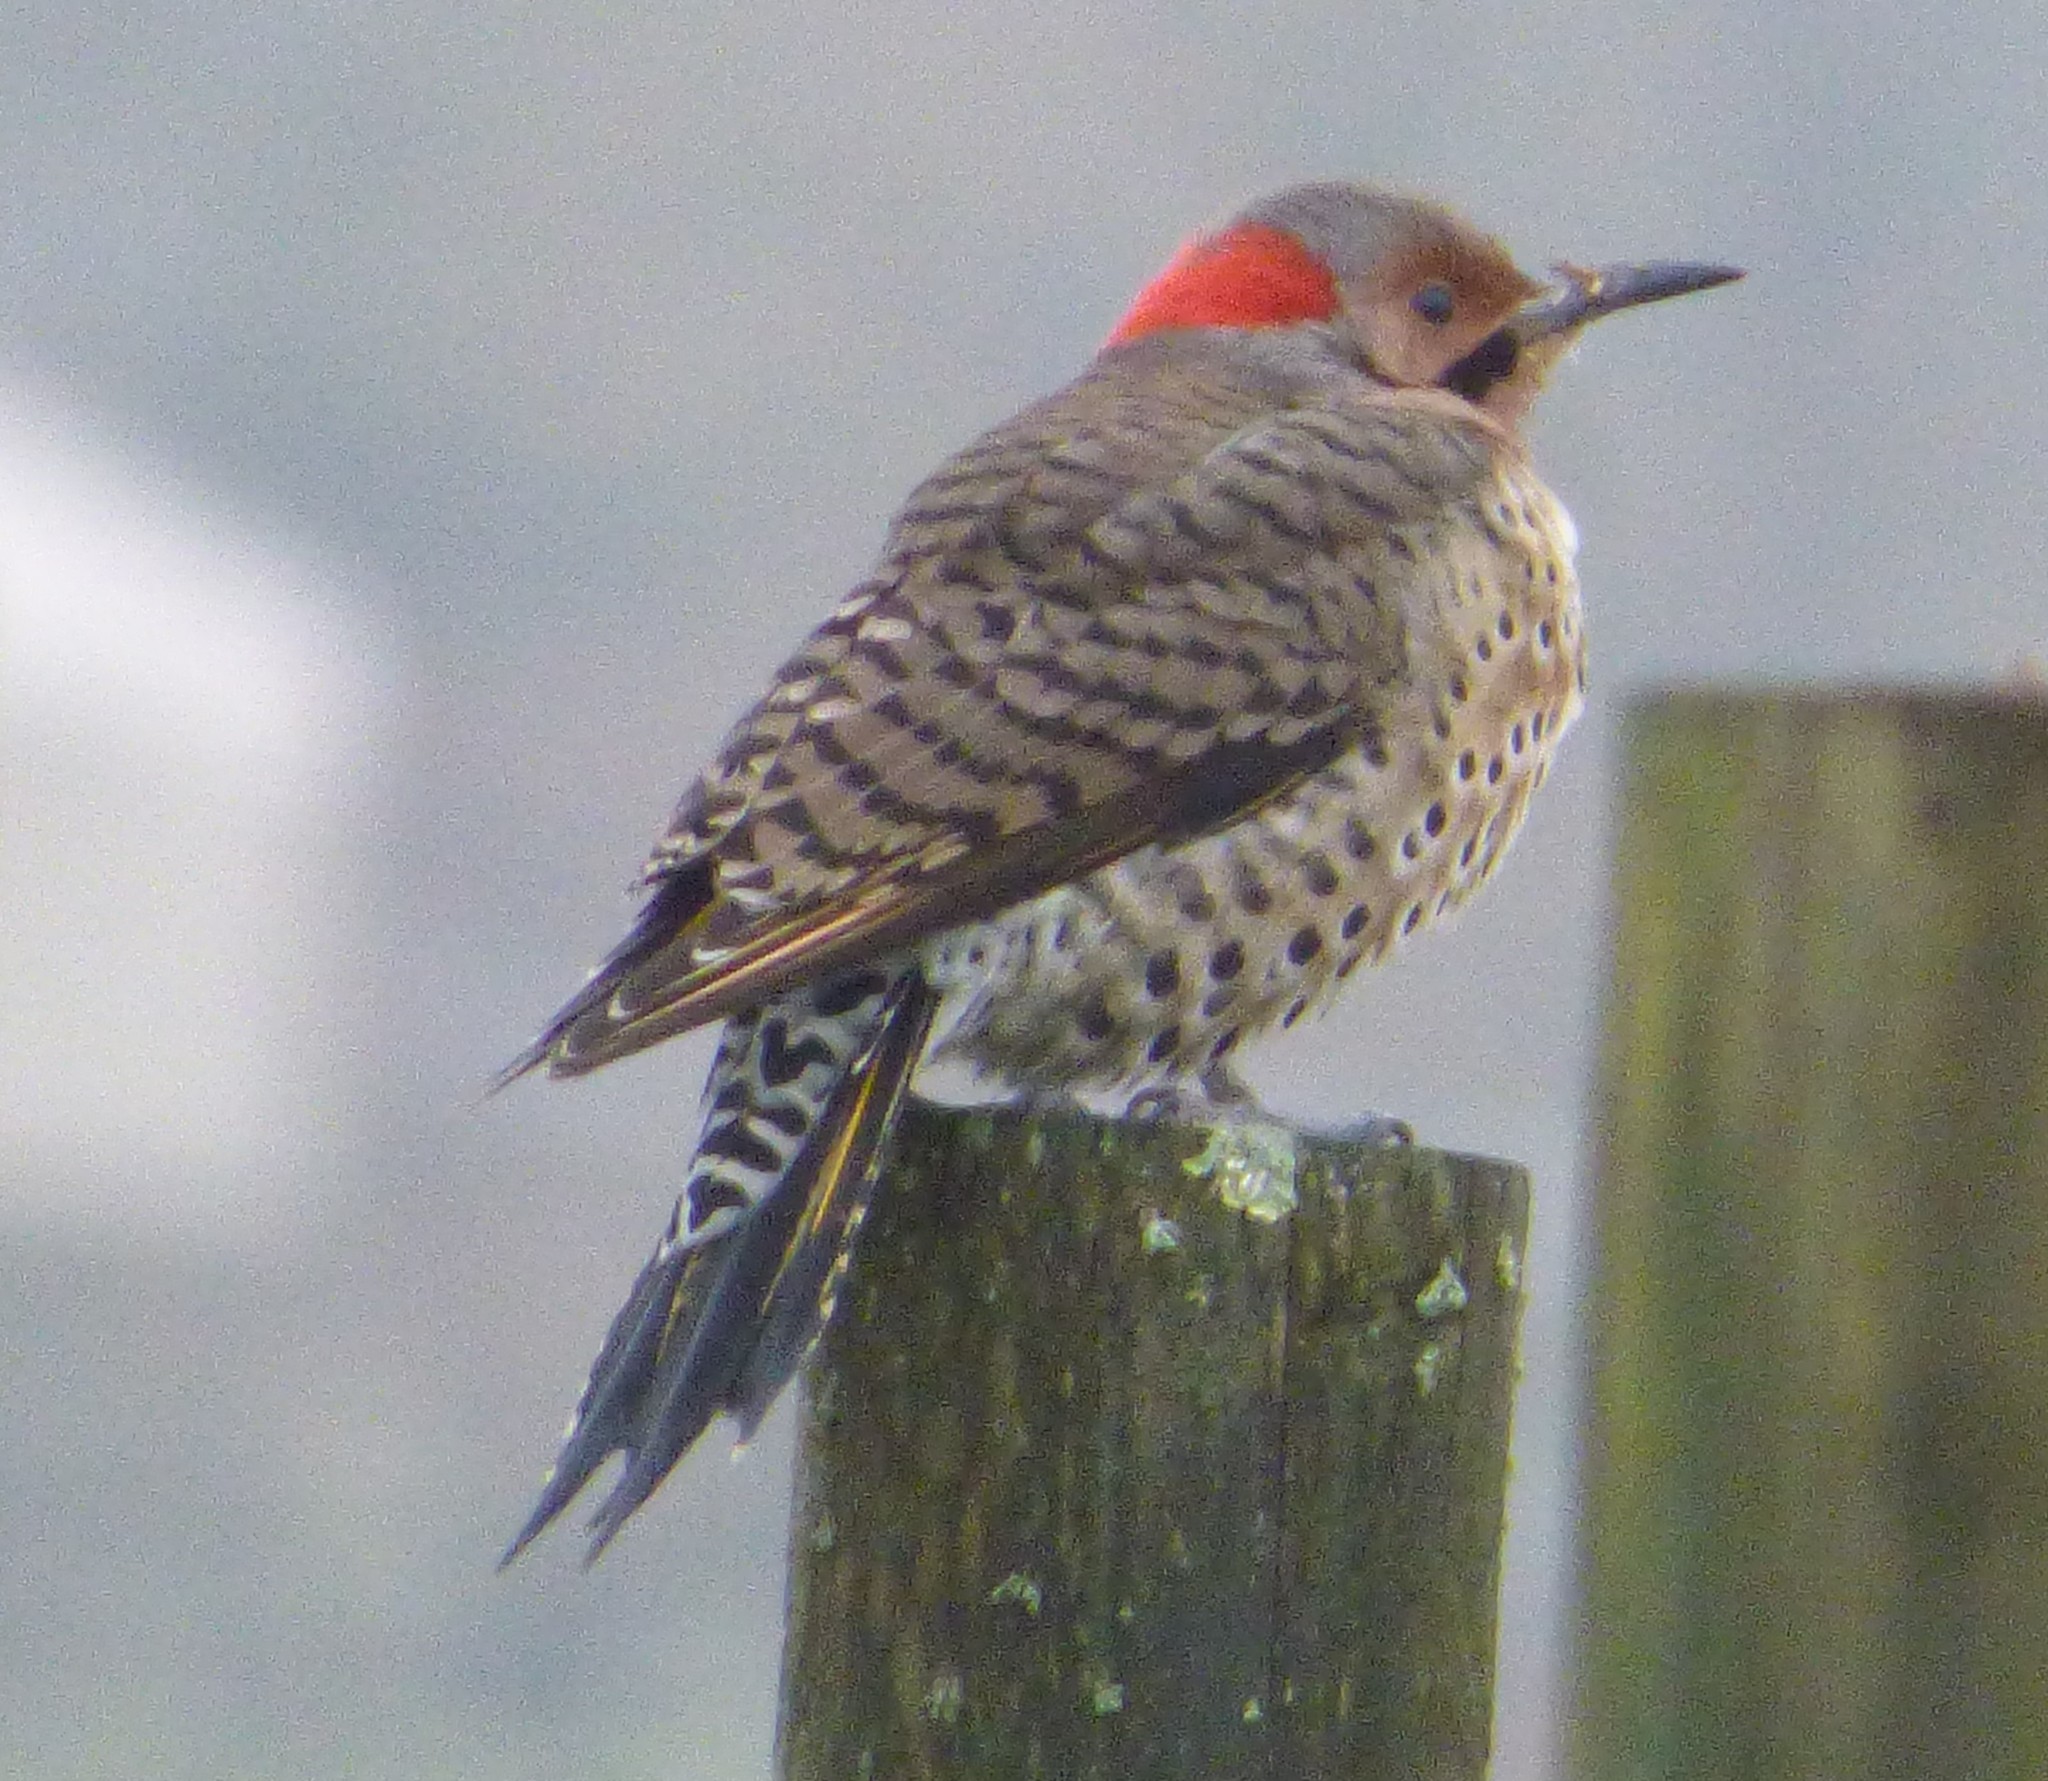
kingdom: Animalia
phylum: Chordata
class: Aves
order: Piciformes
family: Picidae
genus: Colaptes
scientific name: Colaptes auratus
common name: Northern flicker
